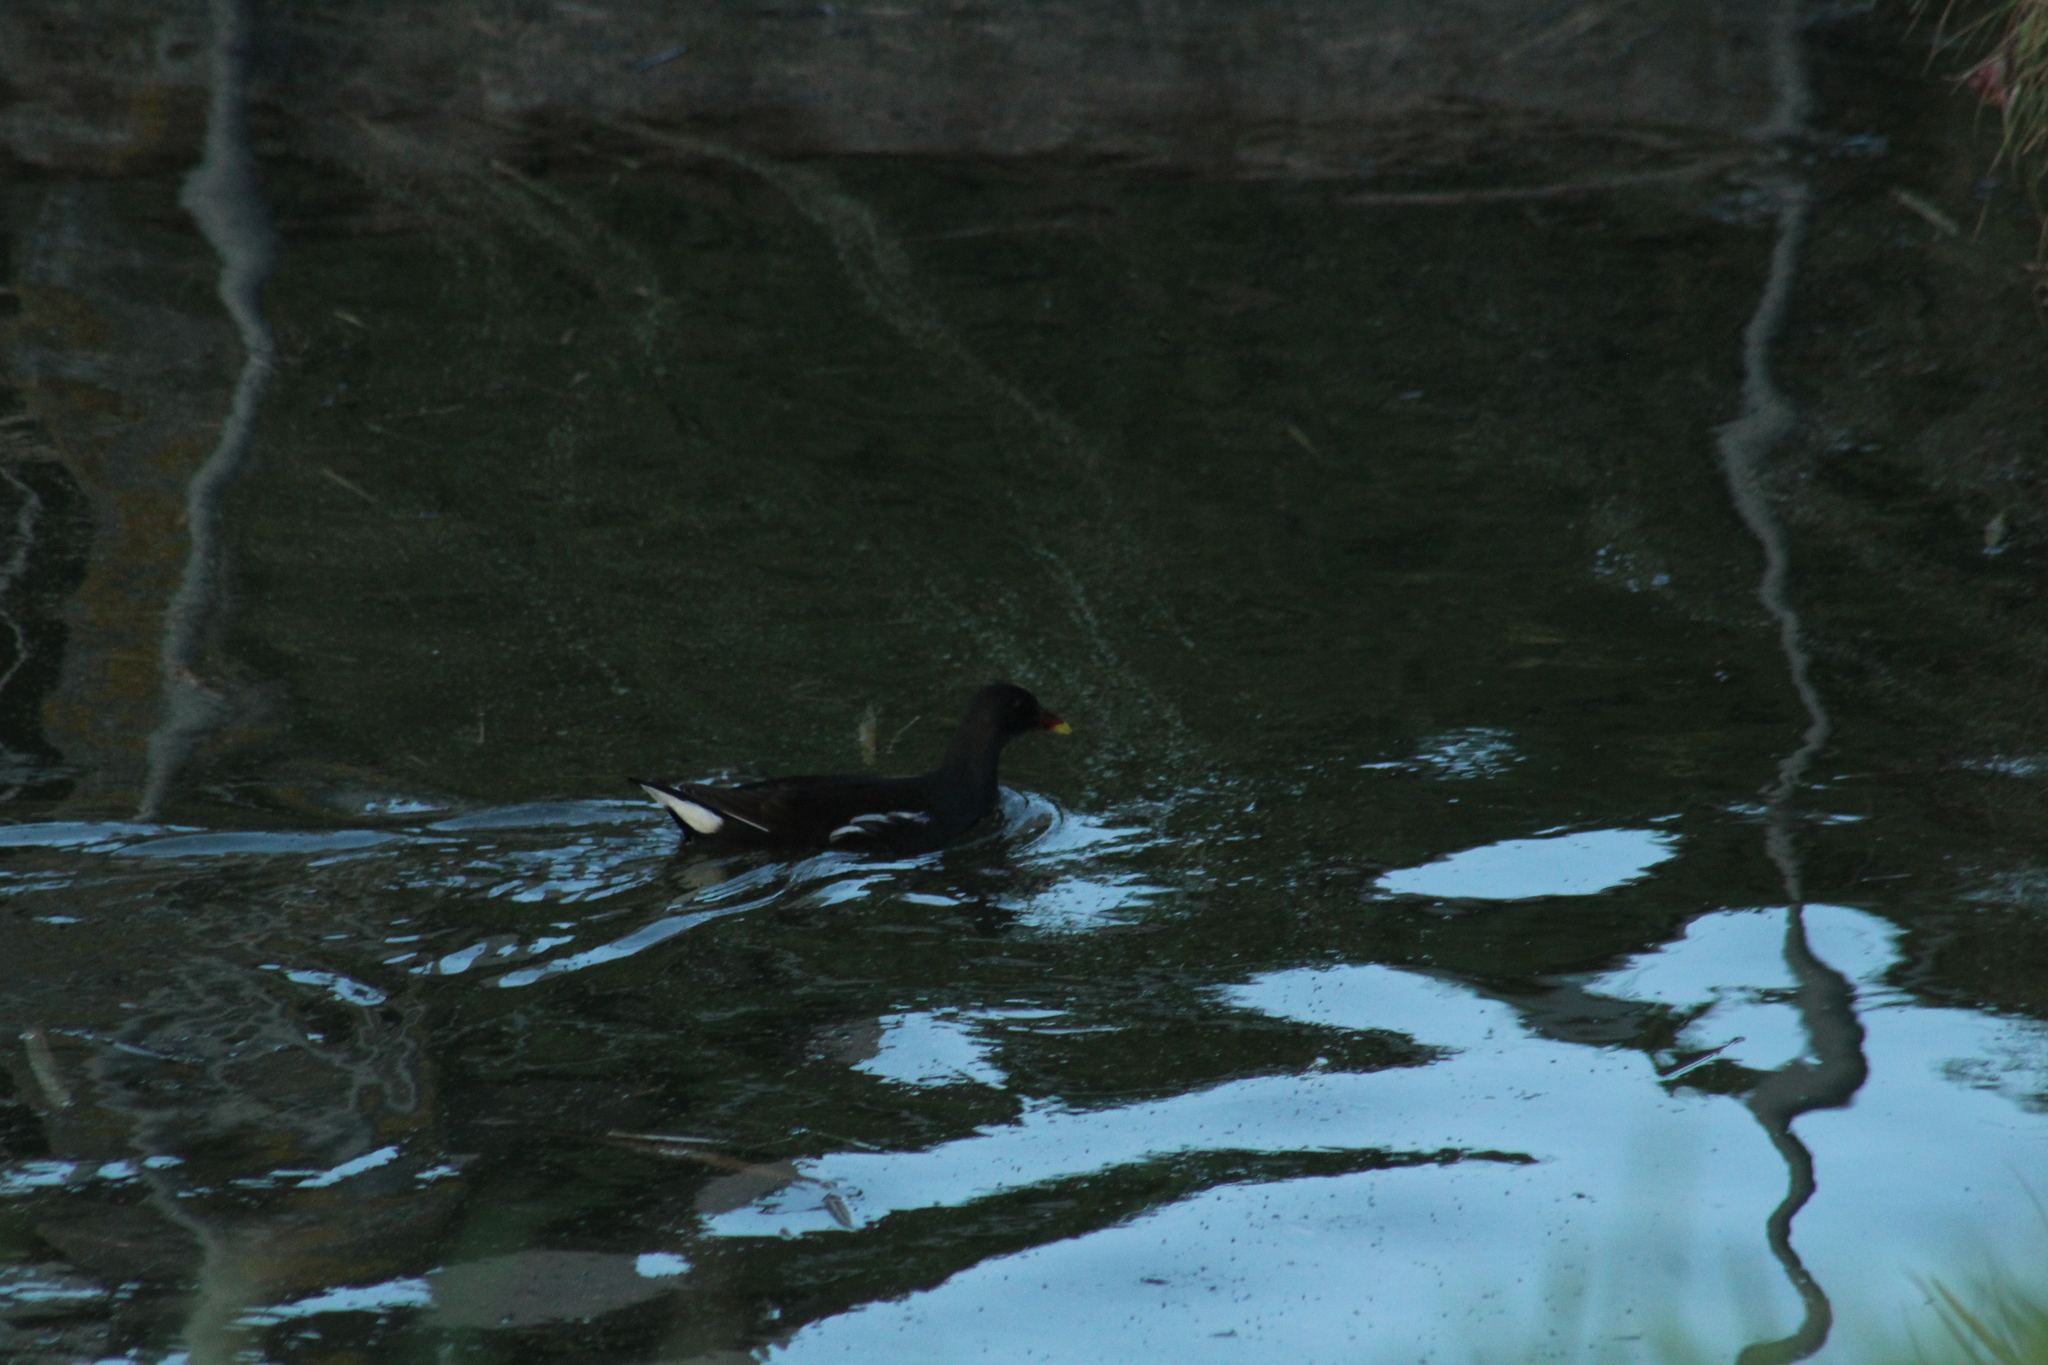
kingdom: Animalia
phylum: Chordata
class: Aves
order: Gruiformes
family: Rallidae
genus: Gallinula
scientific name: Gallinula chloropus
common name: Common moorhen
